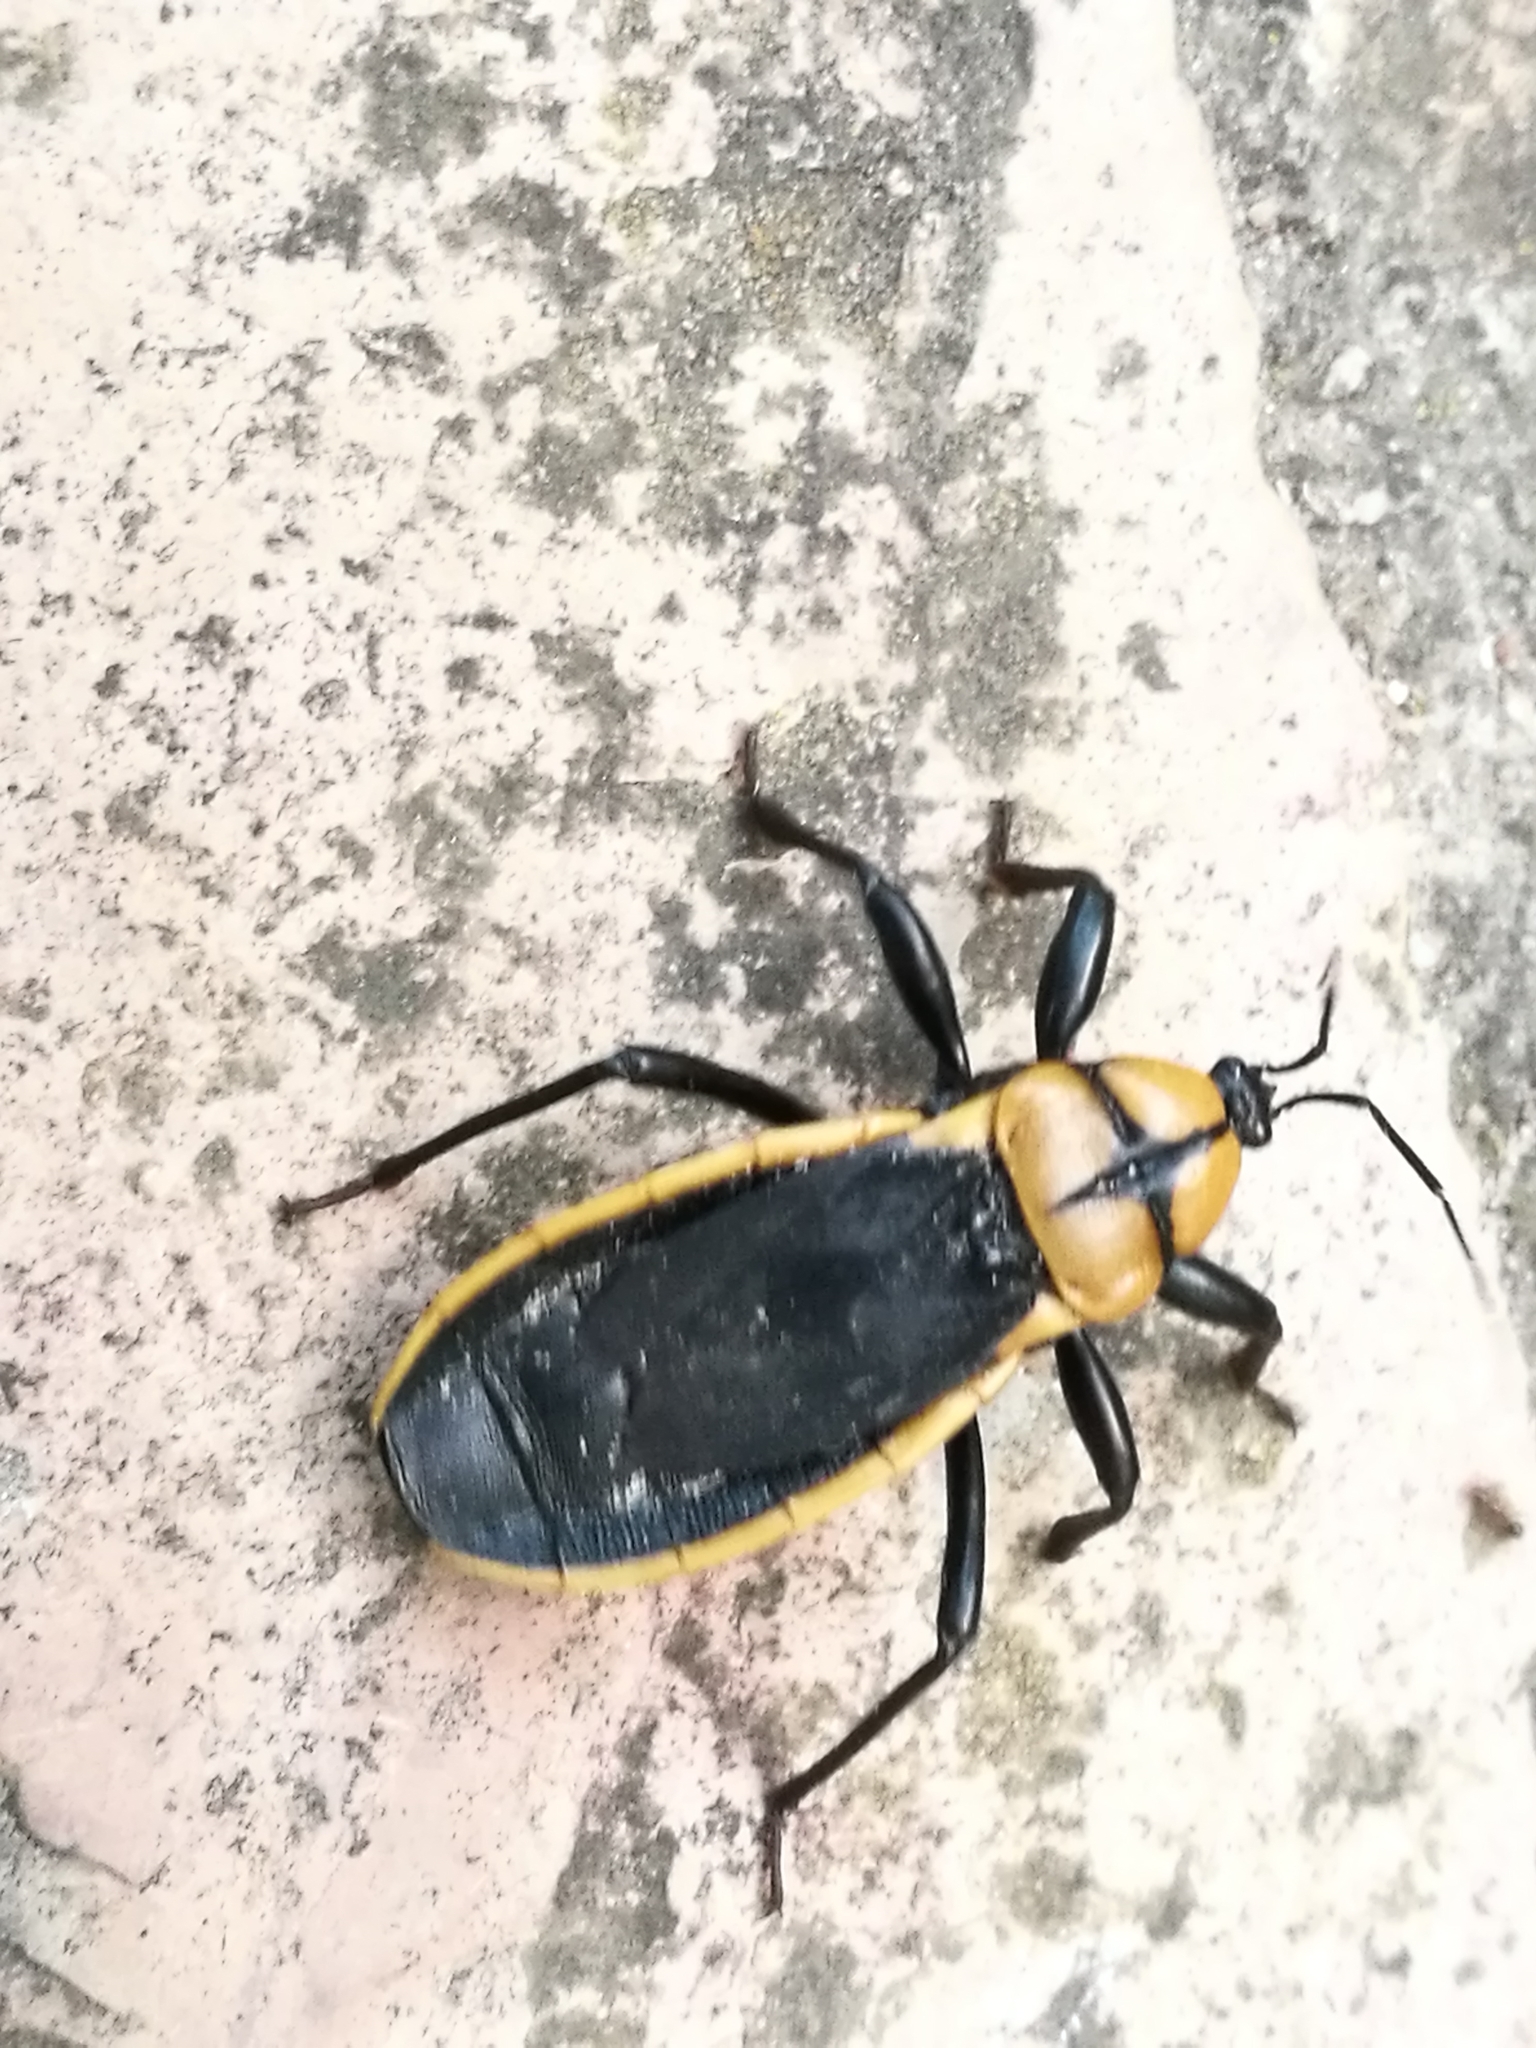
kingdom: Animalia
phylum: Arthropoda
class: Insecta
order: Hemiptera
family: Reduviidae
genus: Ectrichodia
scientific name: Ectrichodia crux
